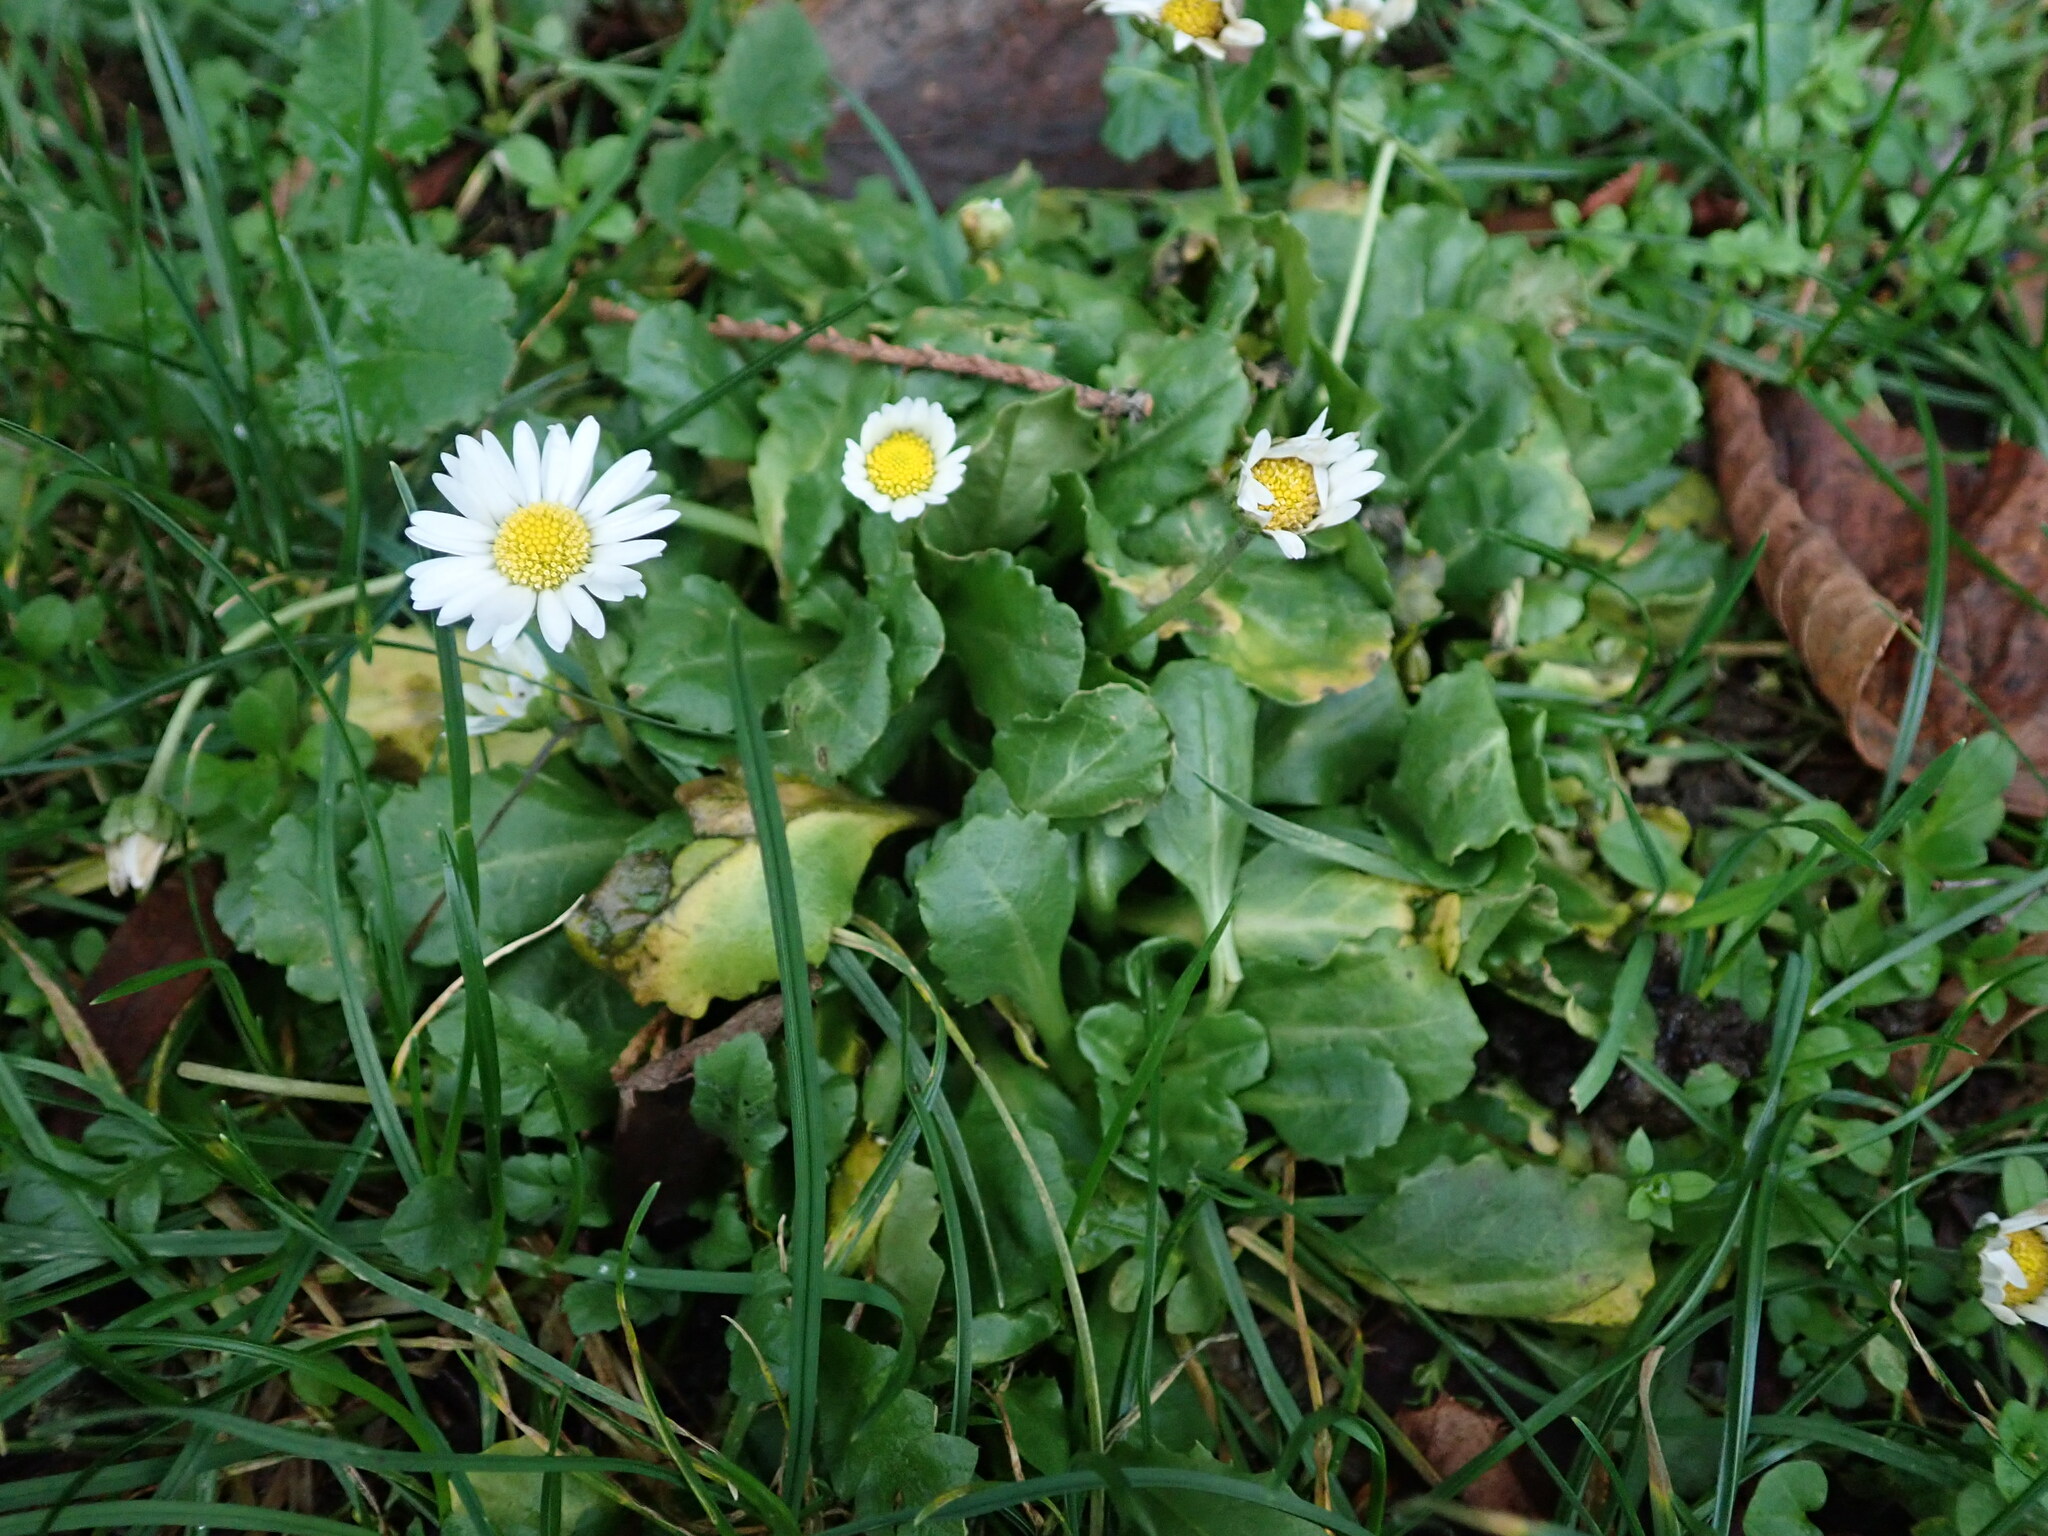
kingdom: Plantae
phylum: Tracheophyta
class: Magnoliopsida
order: Asterales
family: Asteraceae
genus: Bellis
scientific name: Bellis perennis
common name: Lawndaisy
